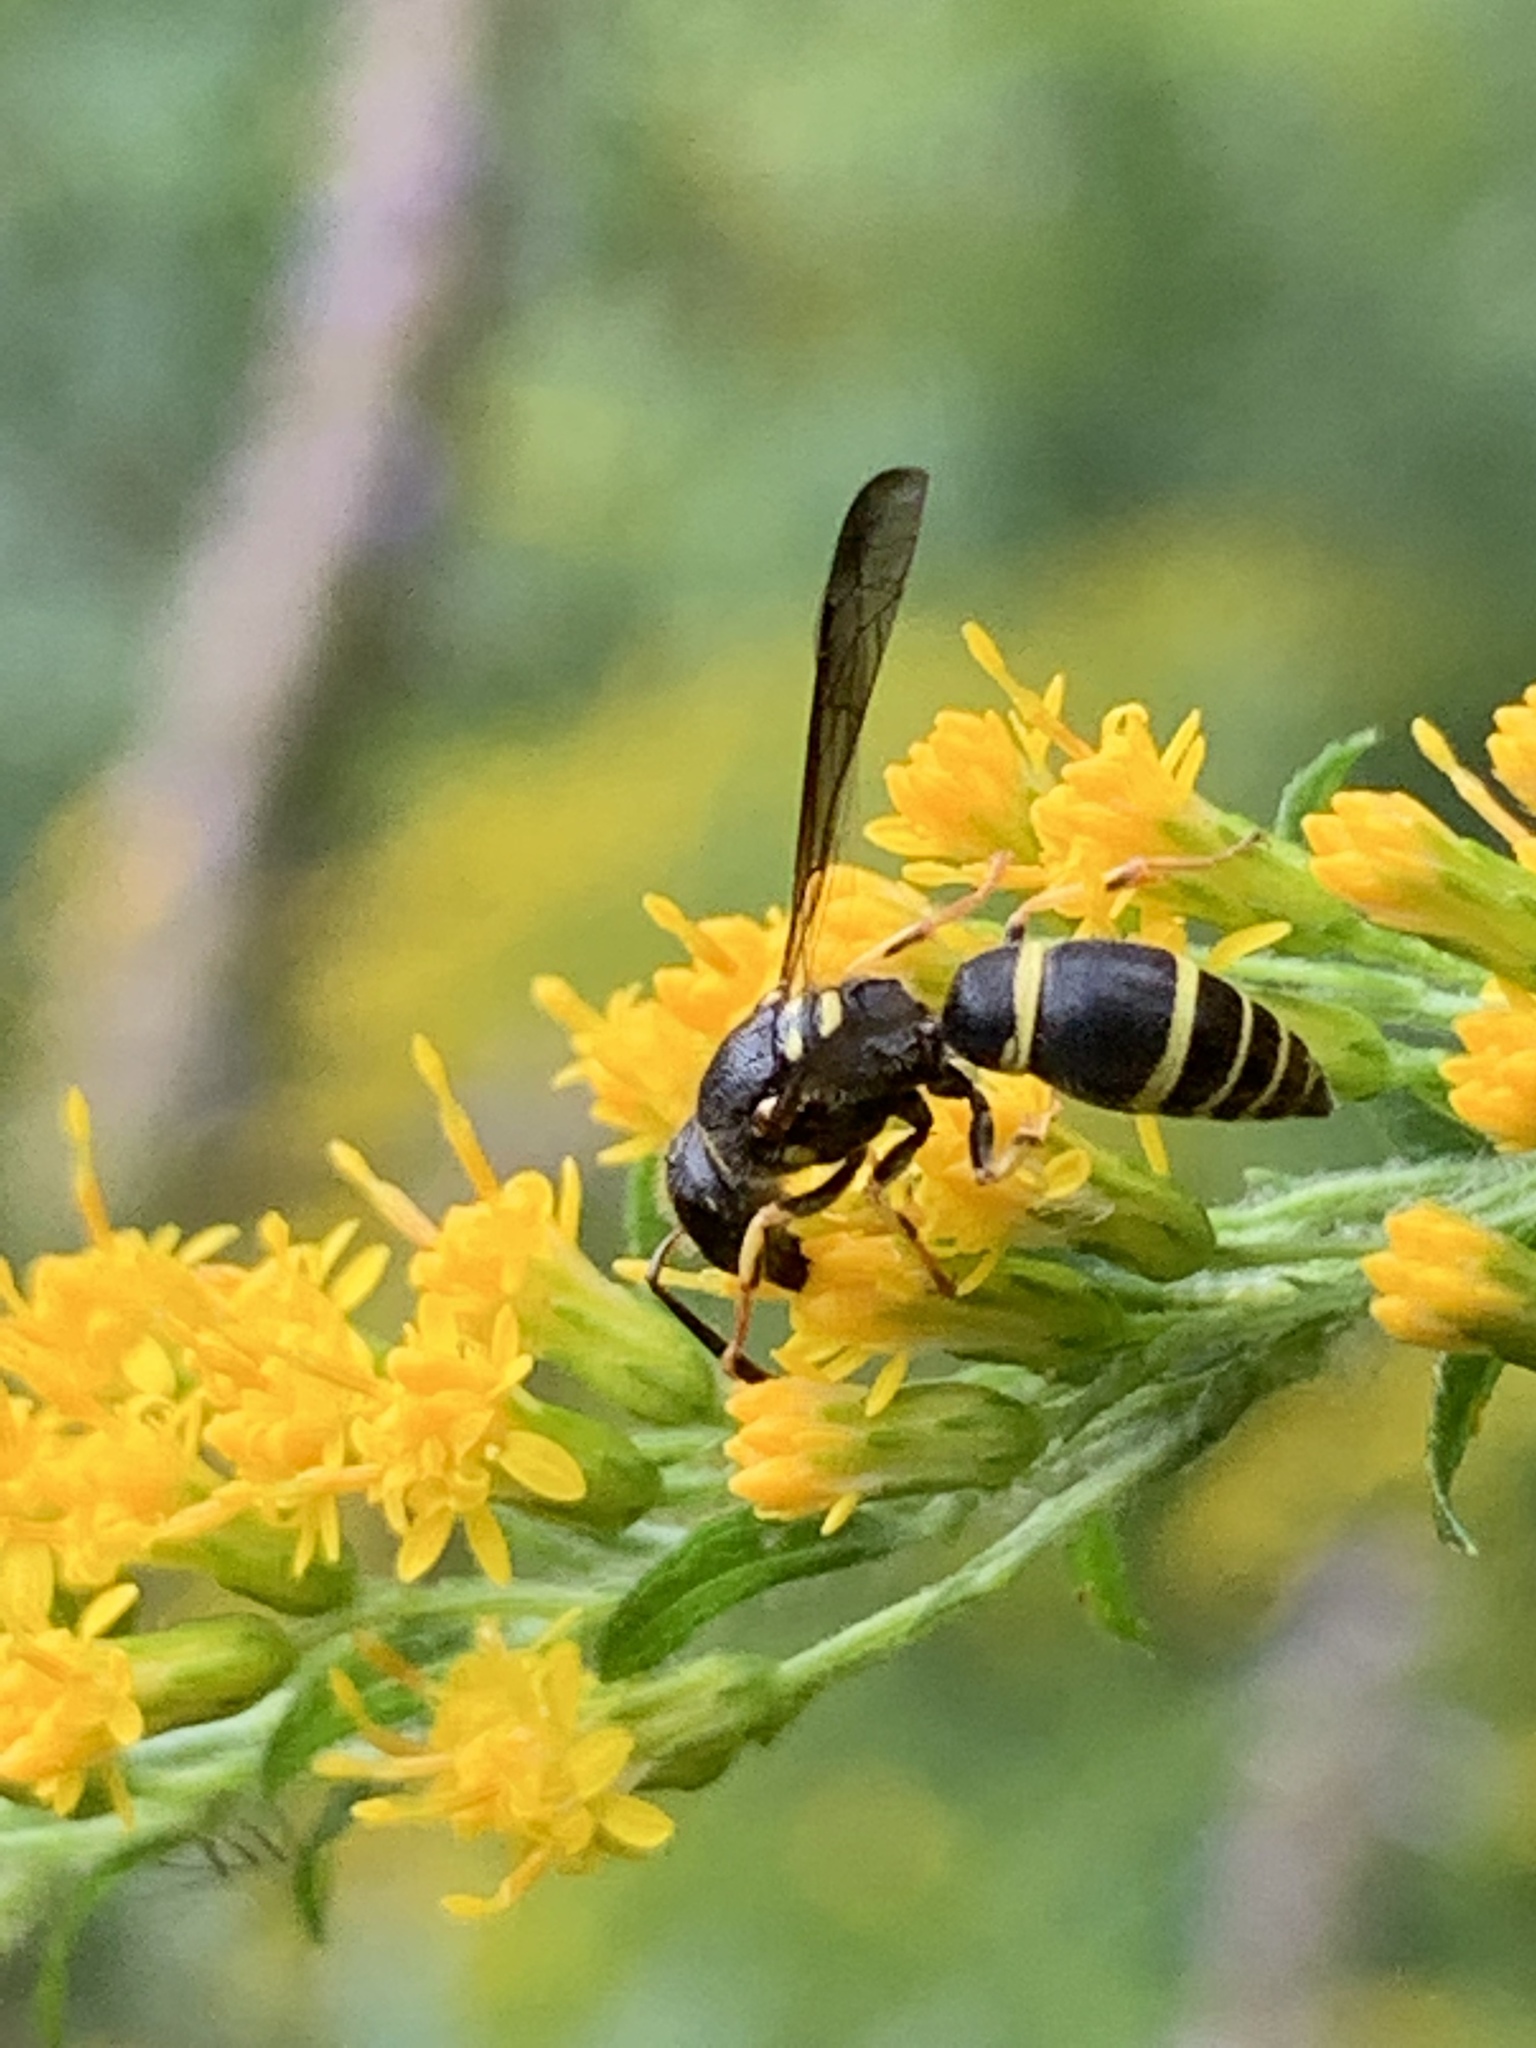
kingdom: Animalia
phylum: Arthropoda
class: Insecta
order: Hymenoptera
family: Vespidae
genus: Ancistrocerus
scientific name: Ancistrocerus
